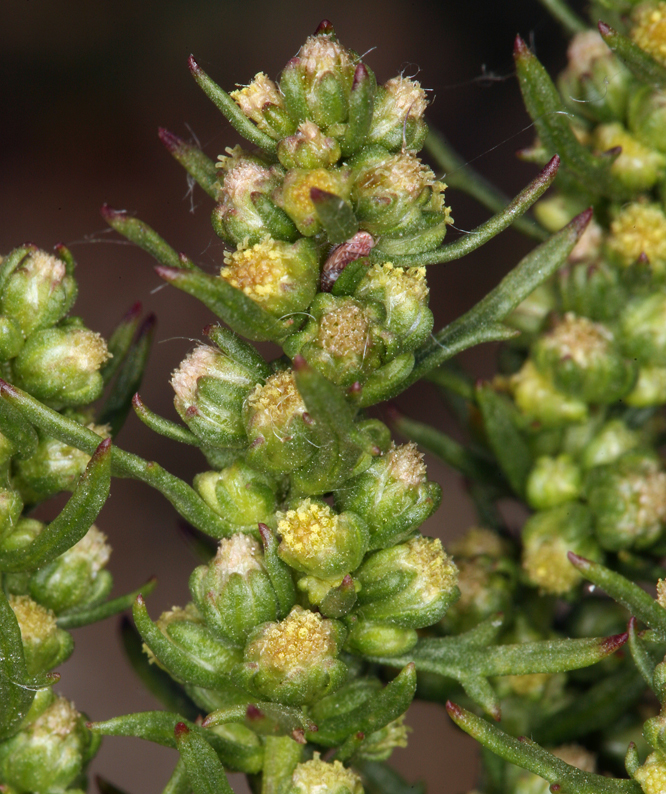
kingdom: Plantae
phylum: Tracheophyta
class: Magnoliopsida
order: Asterales
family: Asteraceae
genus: Artemisia
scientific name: Artemisia biennis
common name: Biennial wormwood
